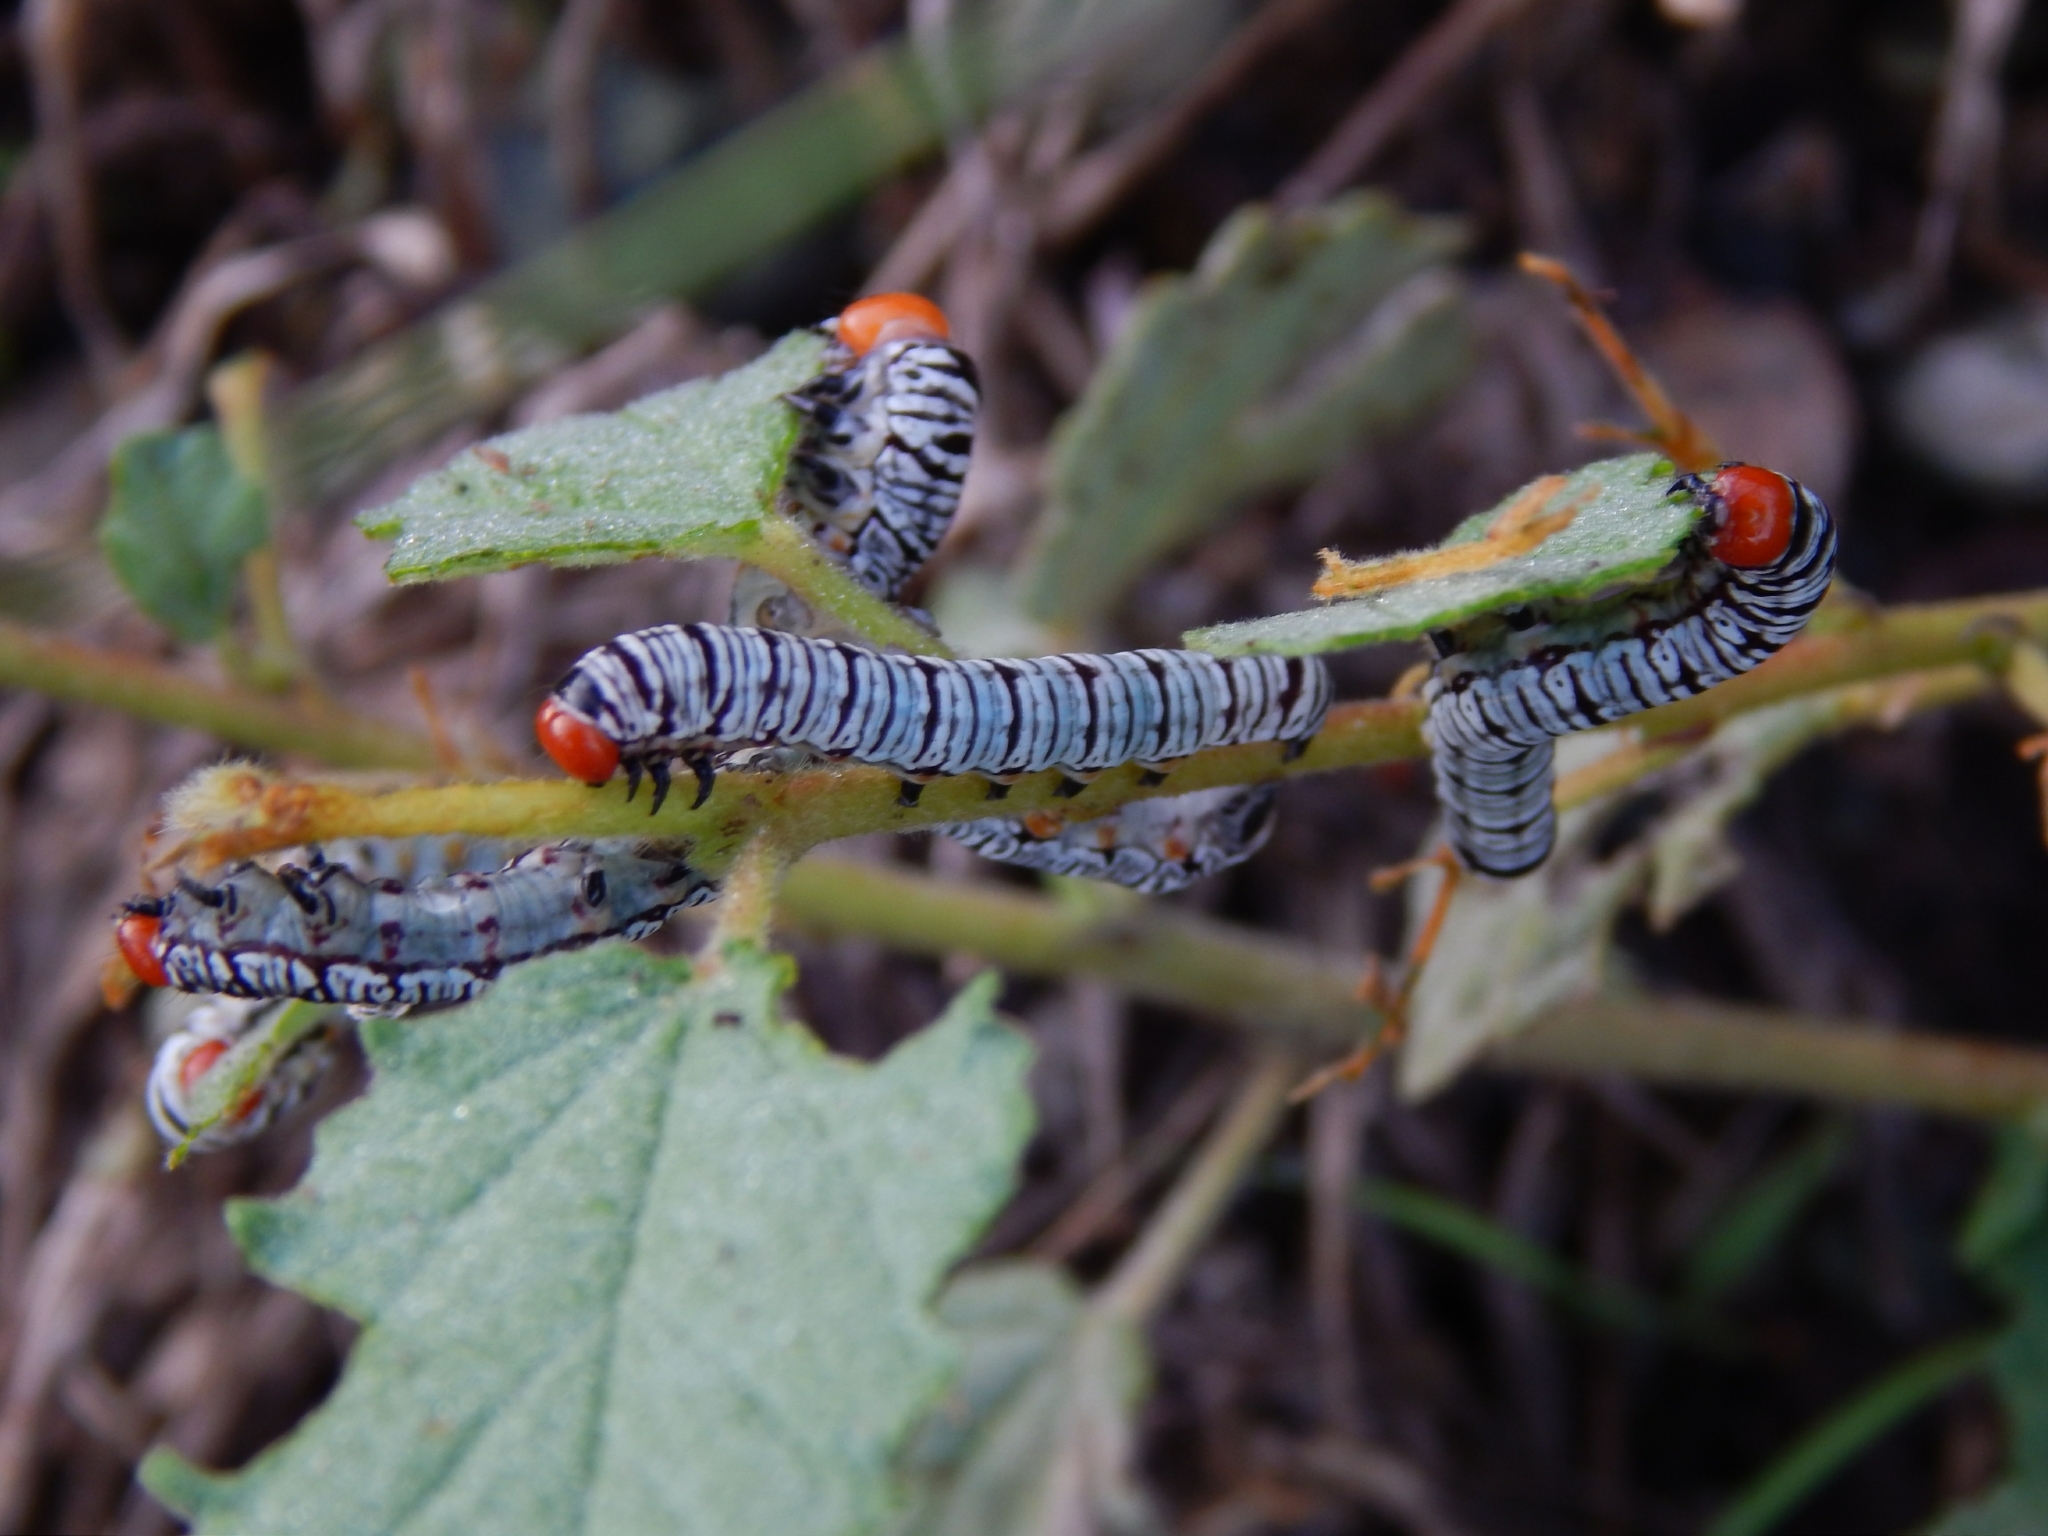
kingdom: Animalia
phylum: Arthropoda
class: Insecta
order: Lepidoptera
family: Erebidae
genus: Diphthera
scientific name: Diphthera festiva
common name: Hieroglyphic moth
